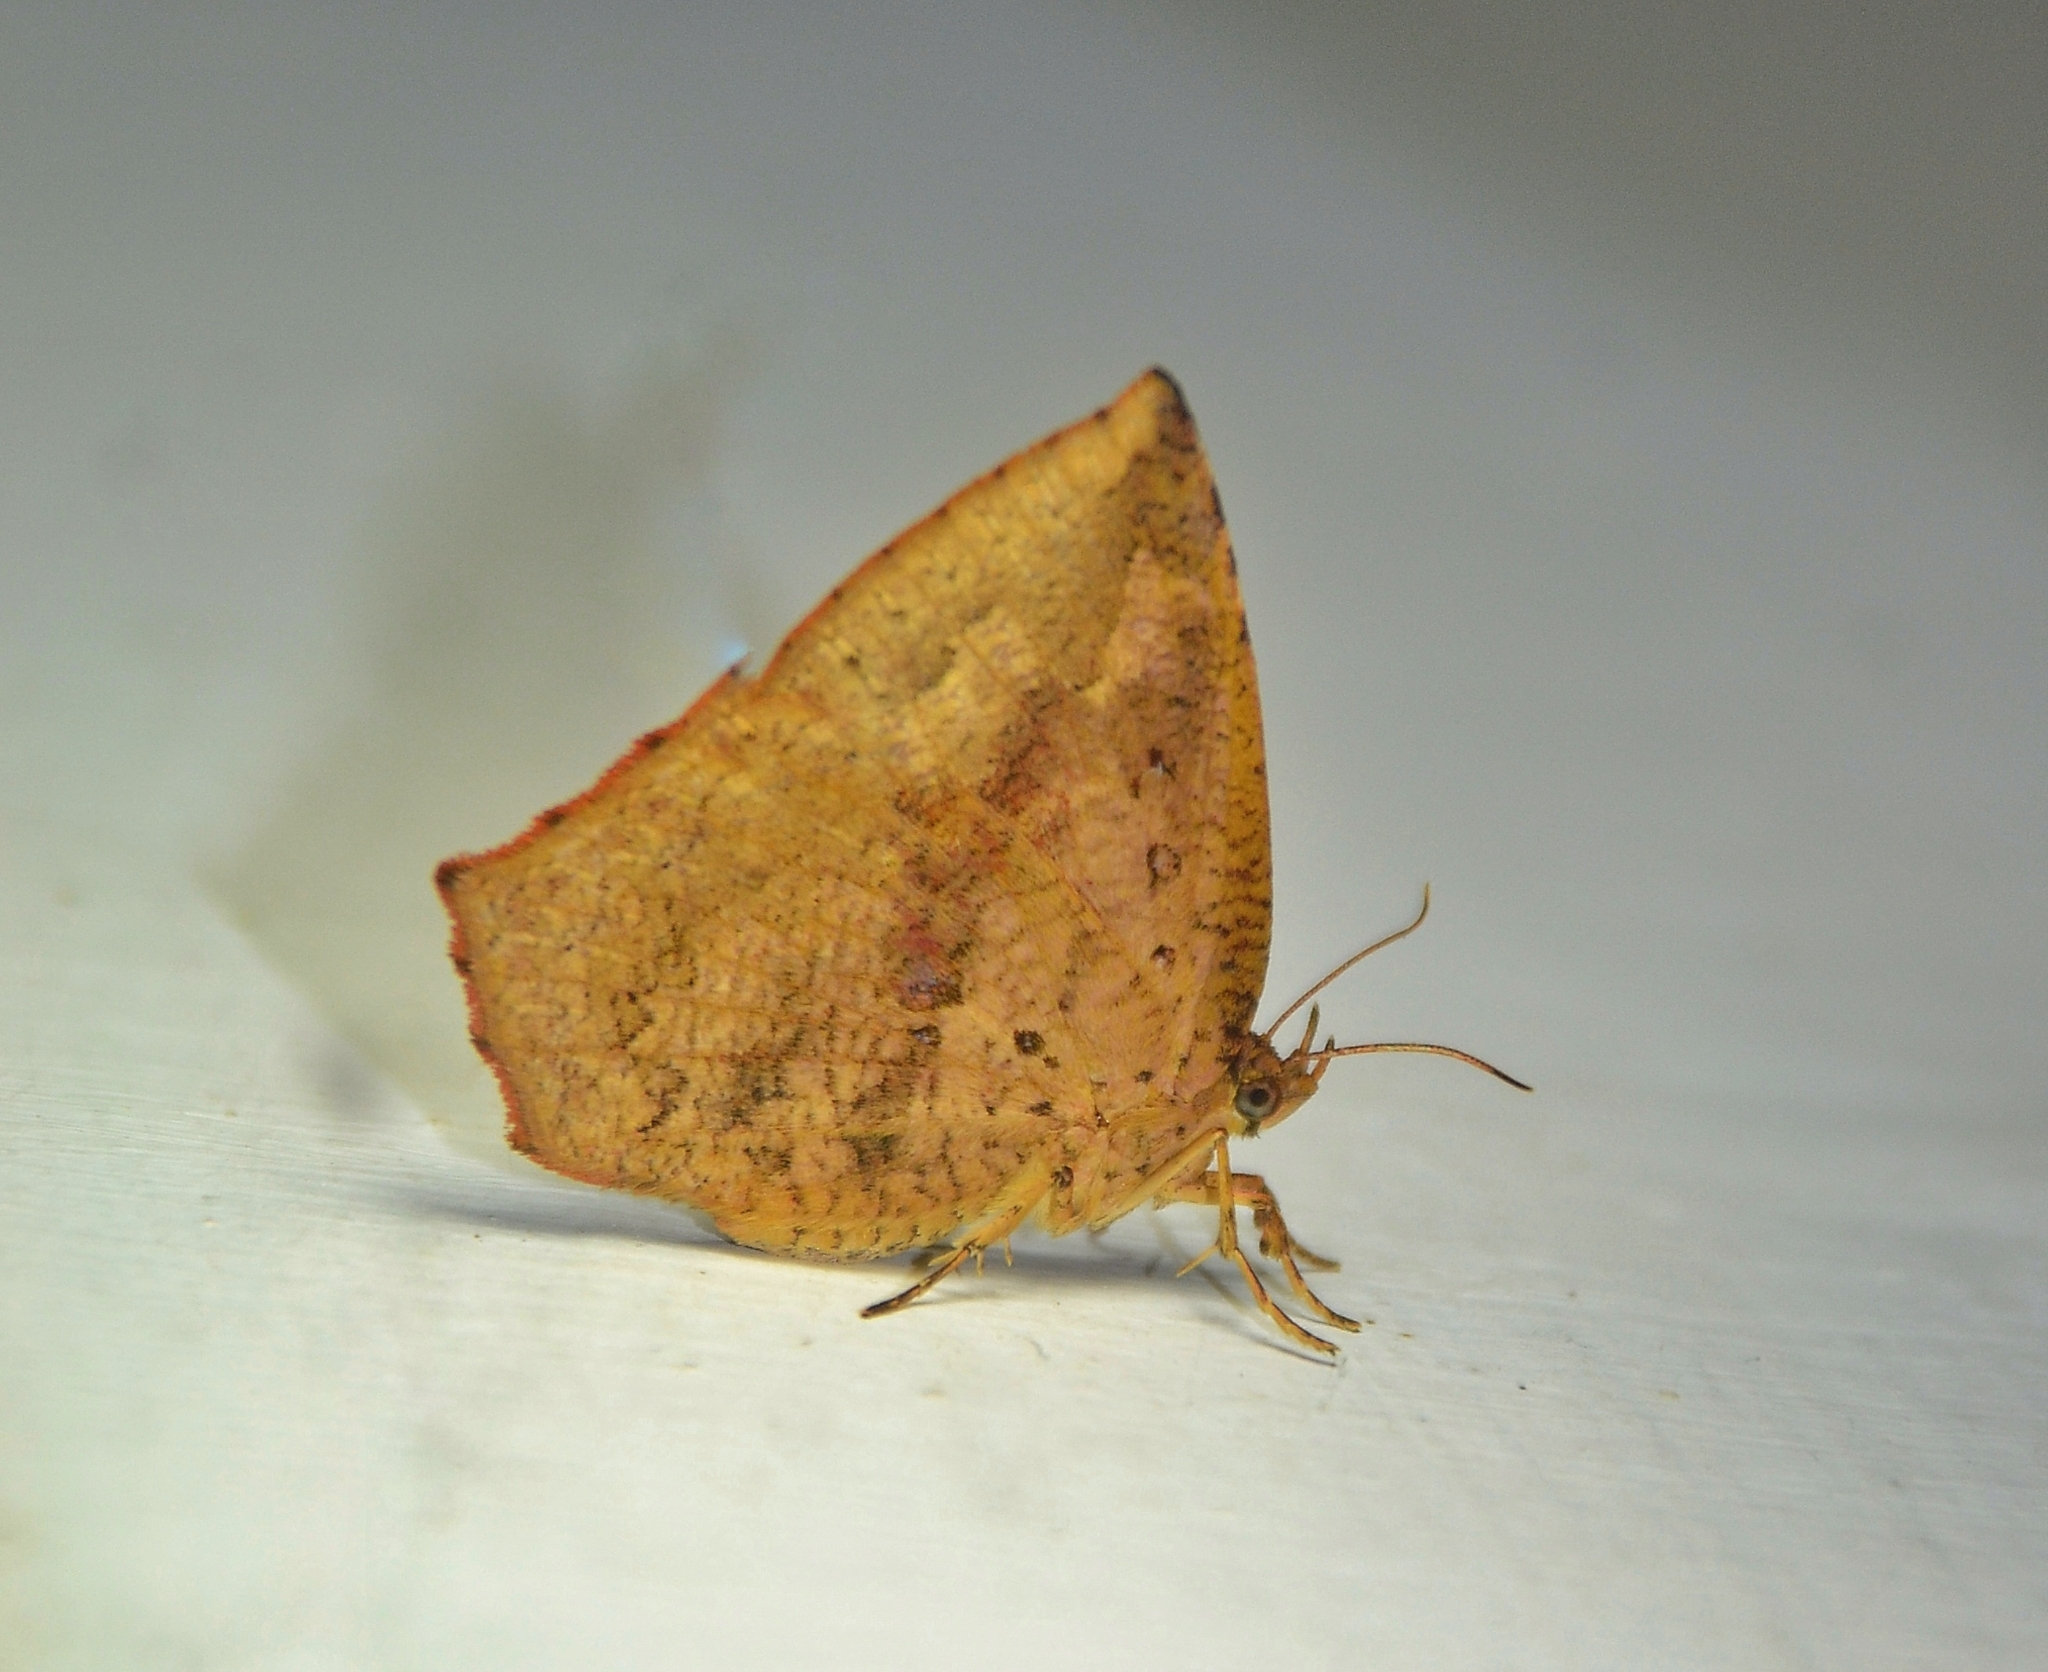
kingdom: Animalia
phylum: Arthropoda
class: Insecta
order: Lepidoptera
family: Callidulidae
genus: Tetragonus
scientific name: Tetragonus catamitus
